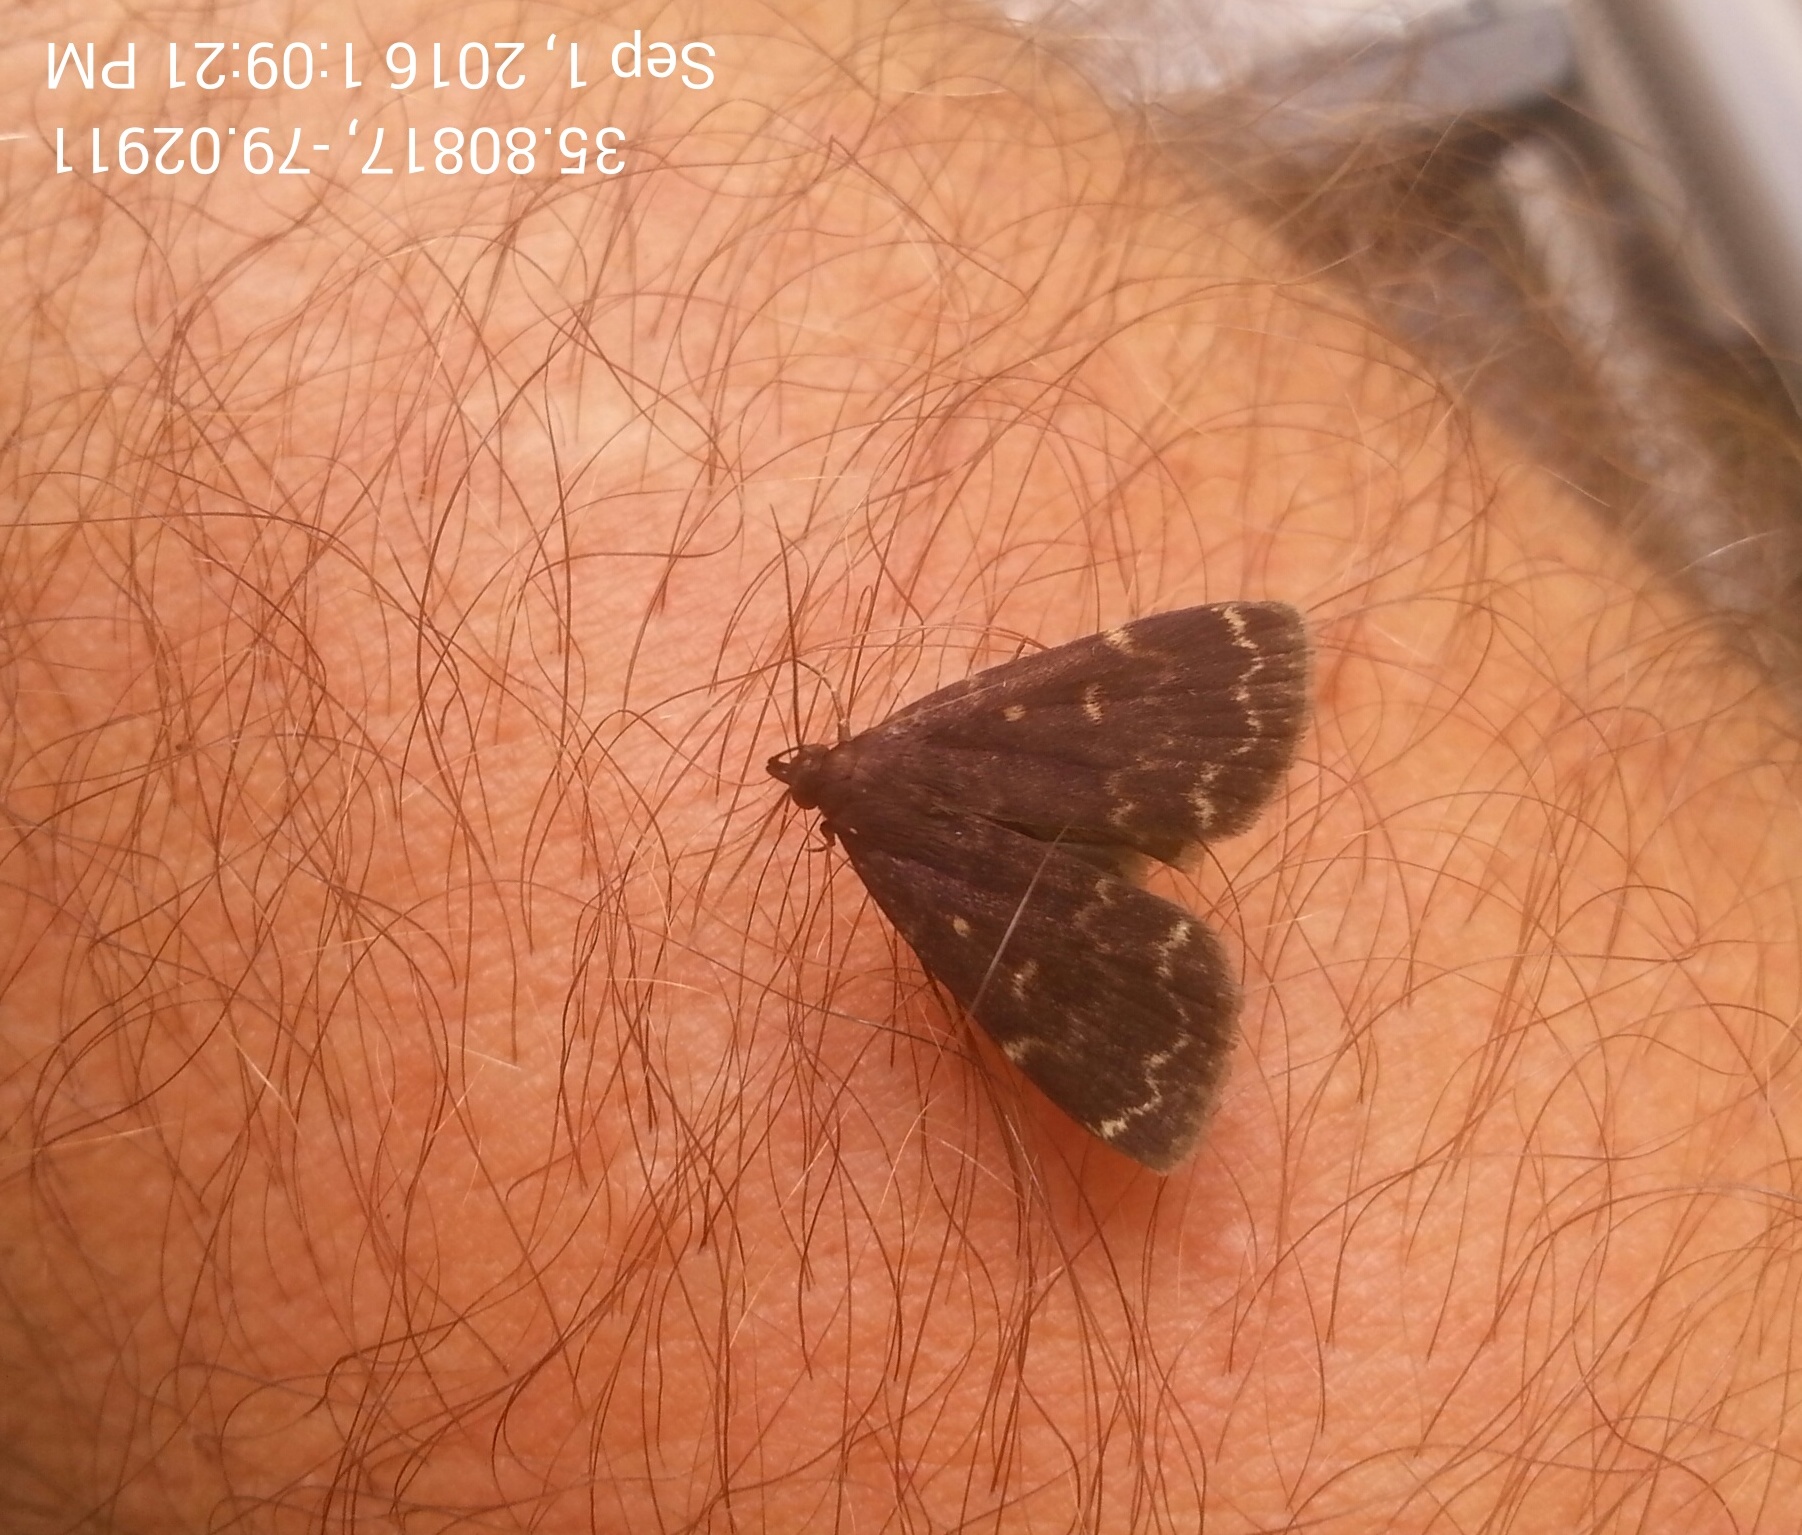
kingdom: Animalia
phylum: Arthropoda
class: Insecta
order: Lepidoptera
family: Erebidae
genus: Idia
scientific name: Idia lubricalis
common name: Twin-striped tabby
